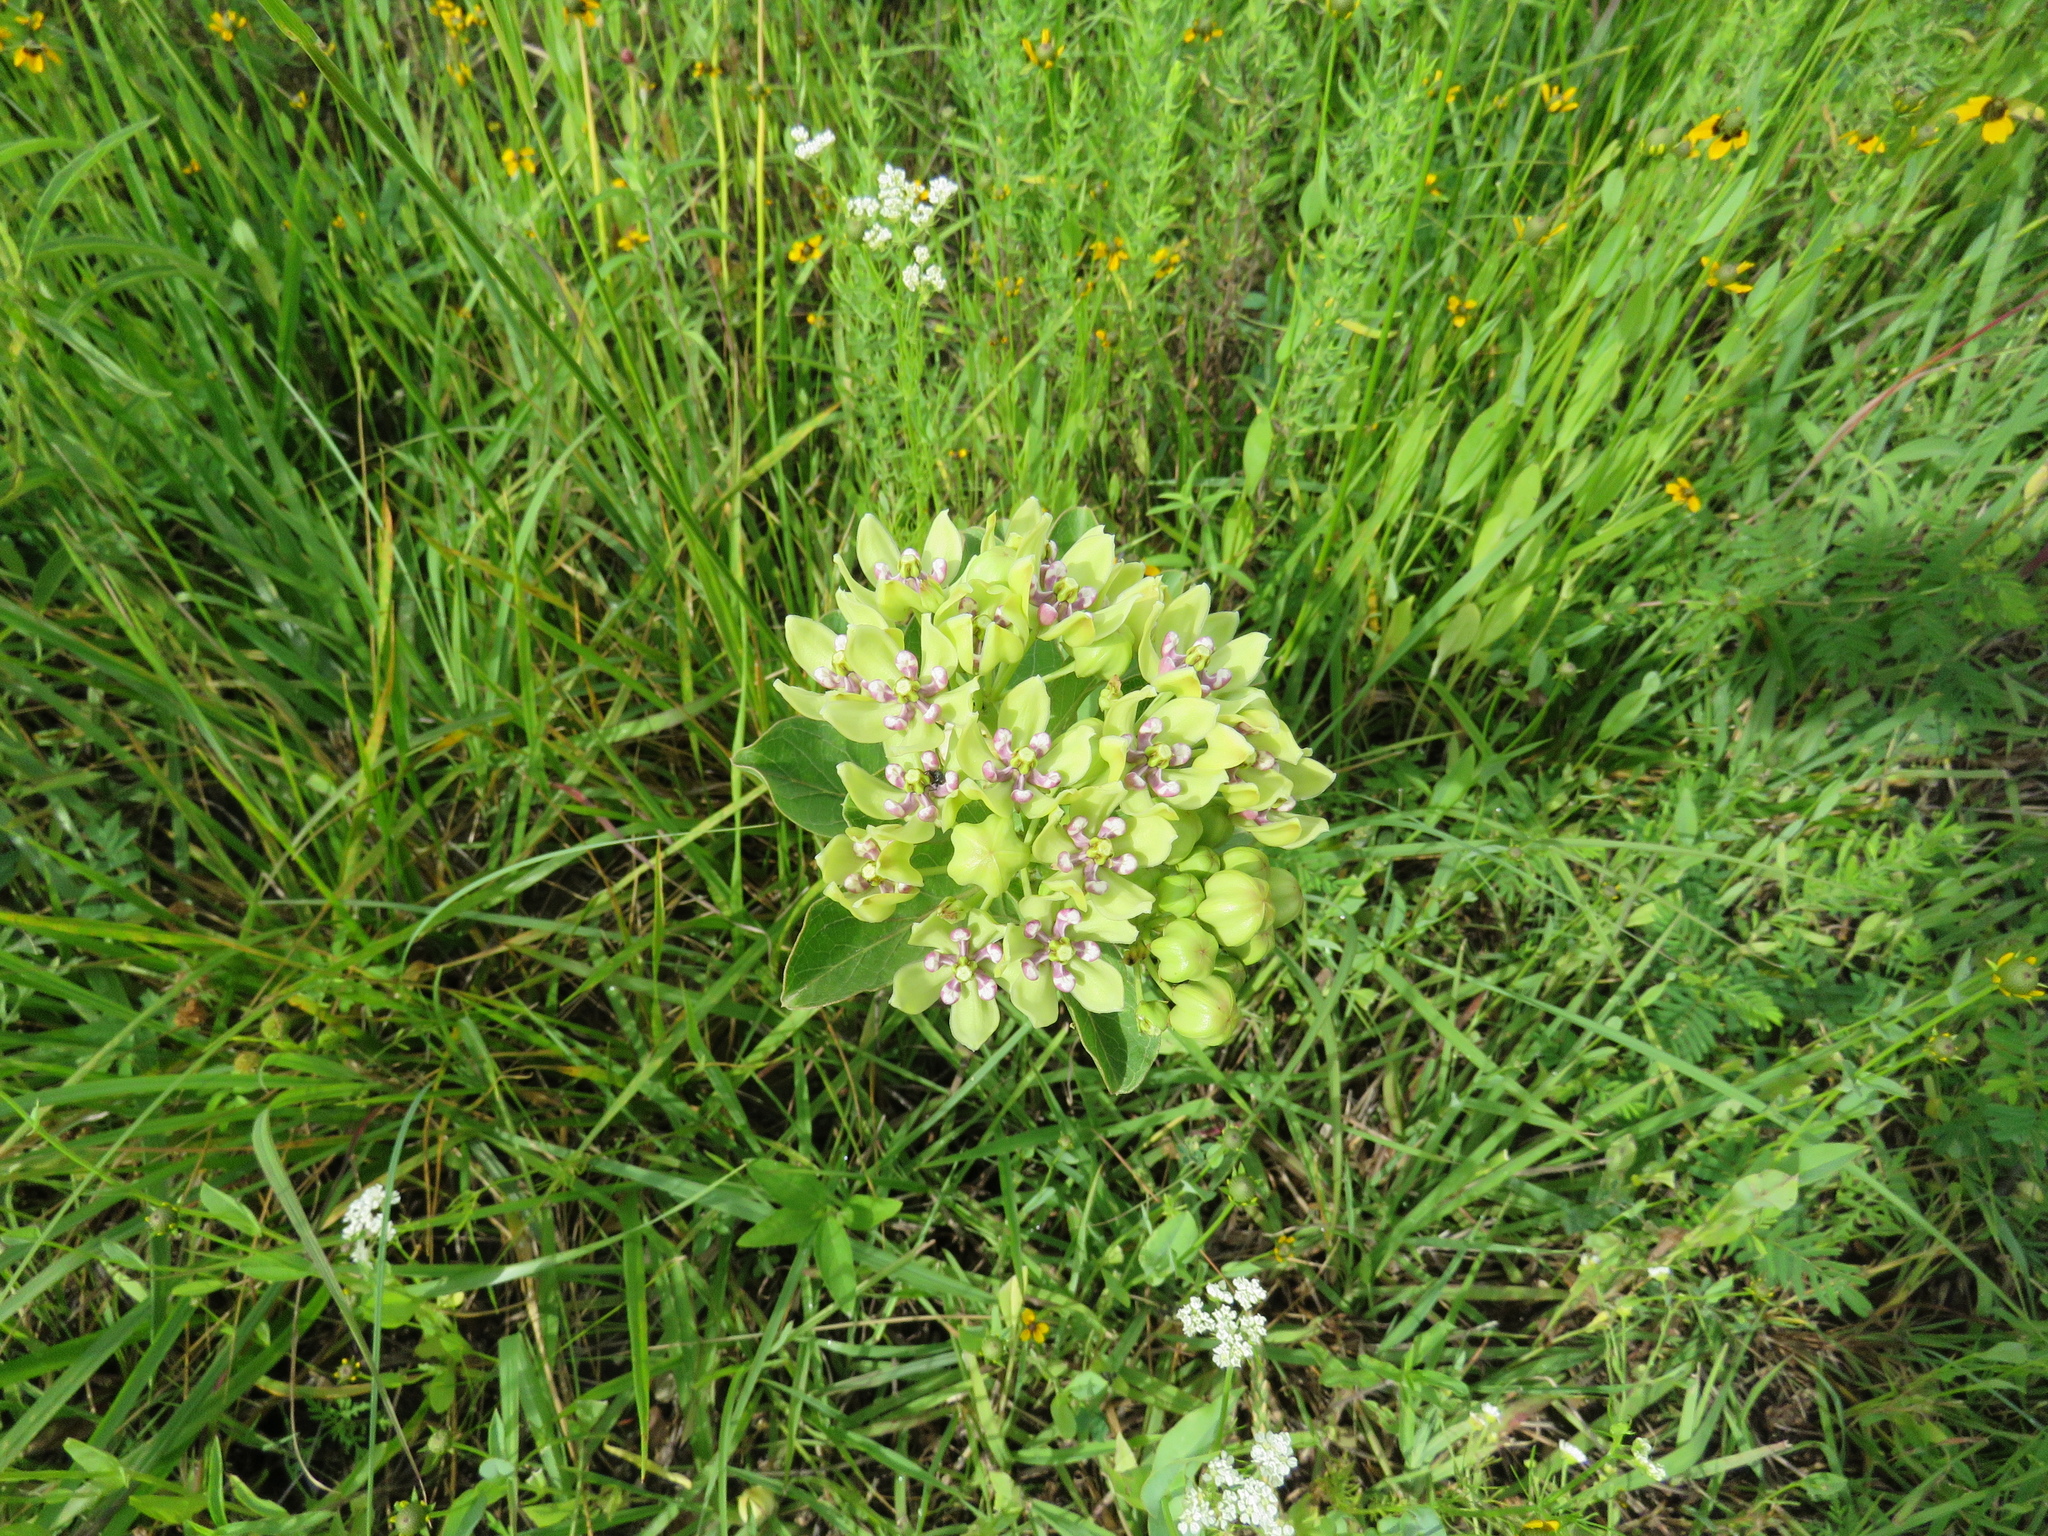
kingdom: Plantae
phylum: Tracheophyta
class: Magnoliopsida
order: Gentianales
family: Apocynaceae
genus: Asclepias
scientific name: Asclepias viridis
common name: Antelope-horns
